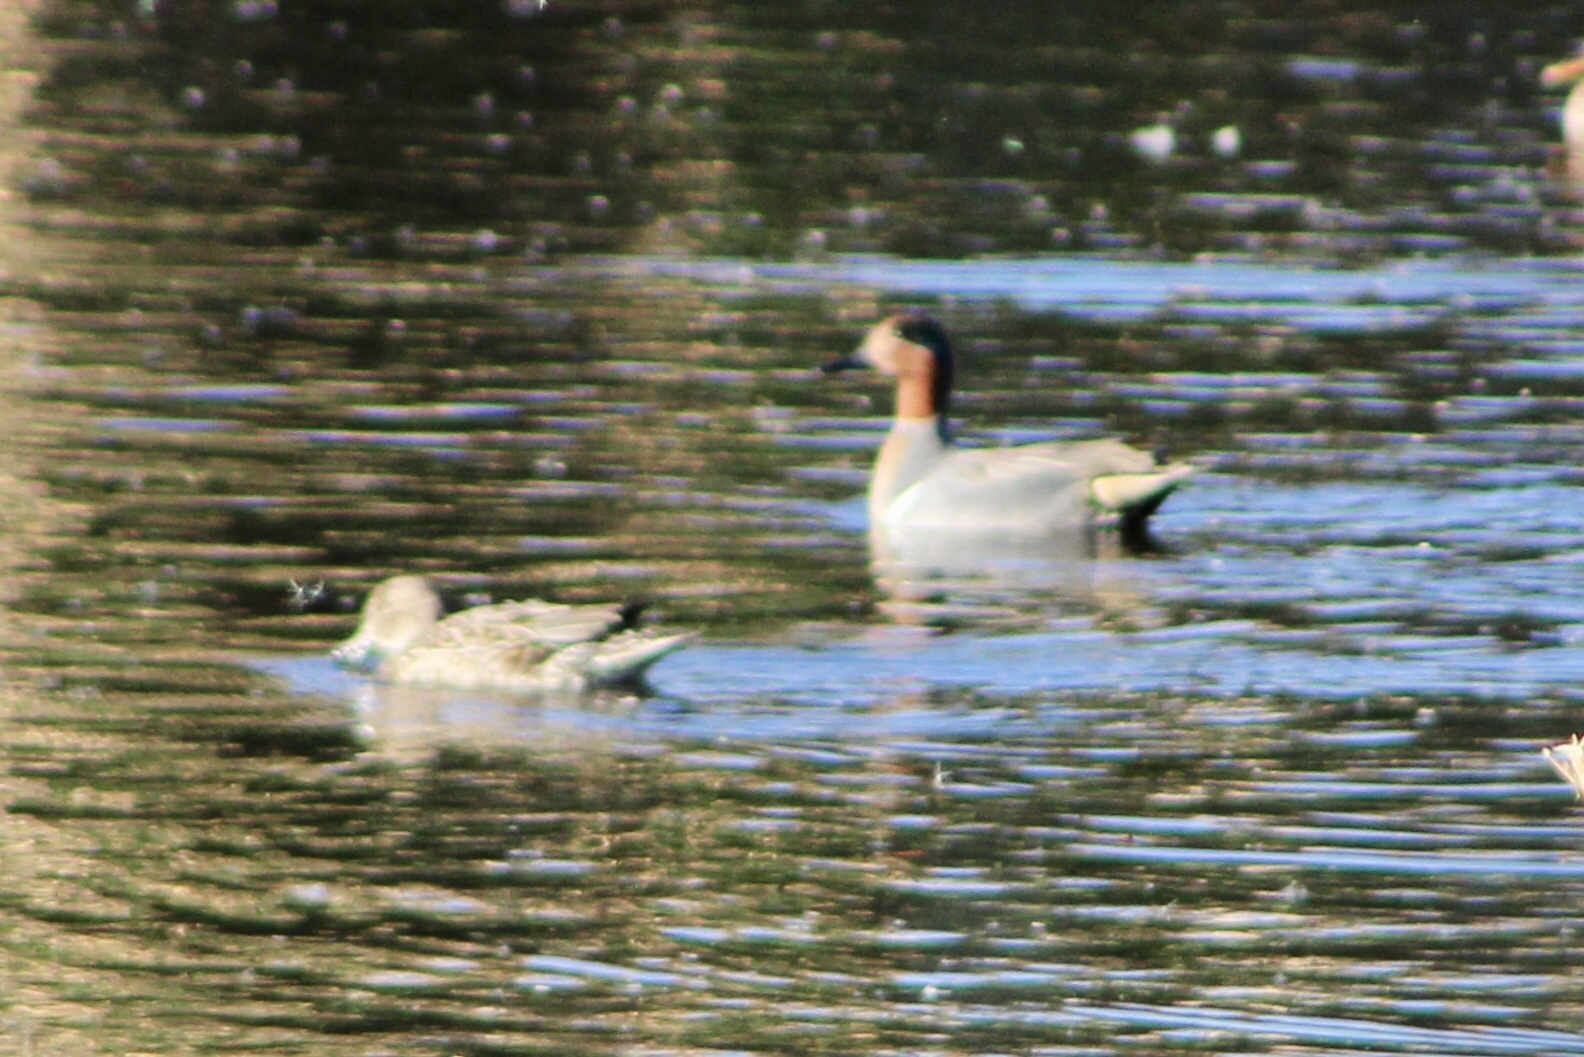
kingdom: Animalia
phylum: Chordata
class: Aves
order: Anseriformes
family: Anatidae
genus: Anas
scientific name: Anas crecca
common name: Eurasian teal
